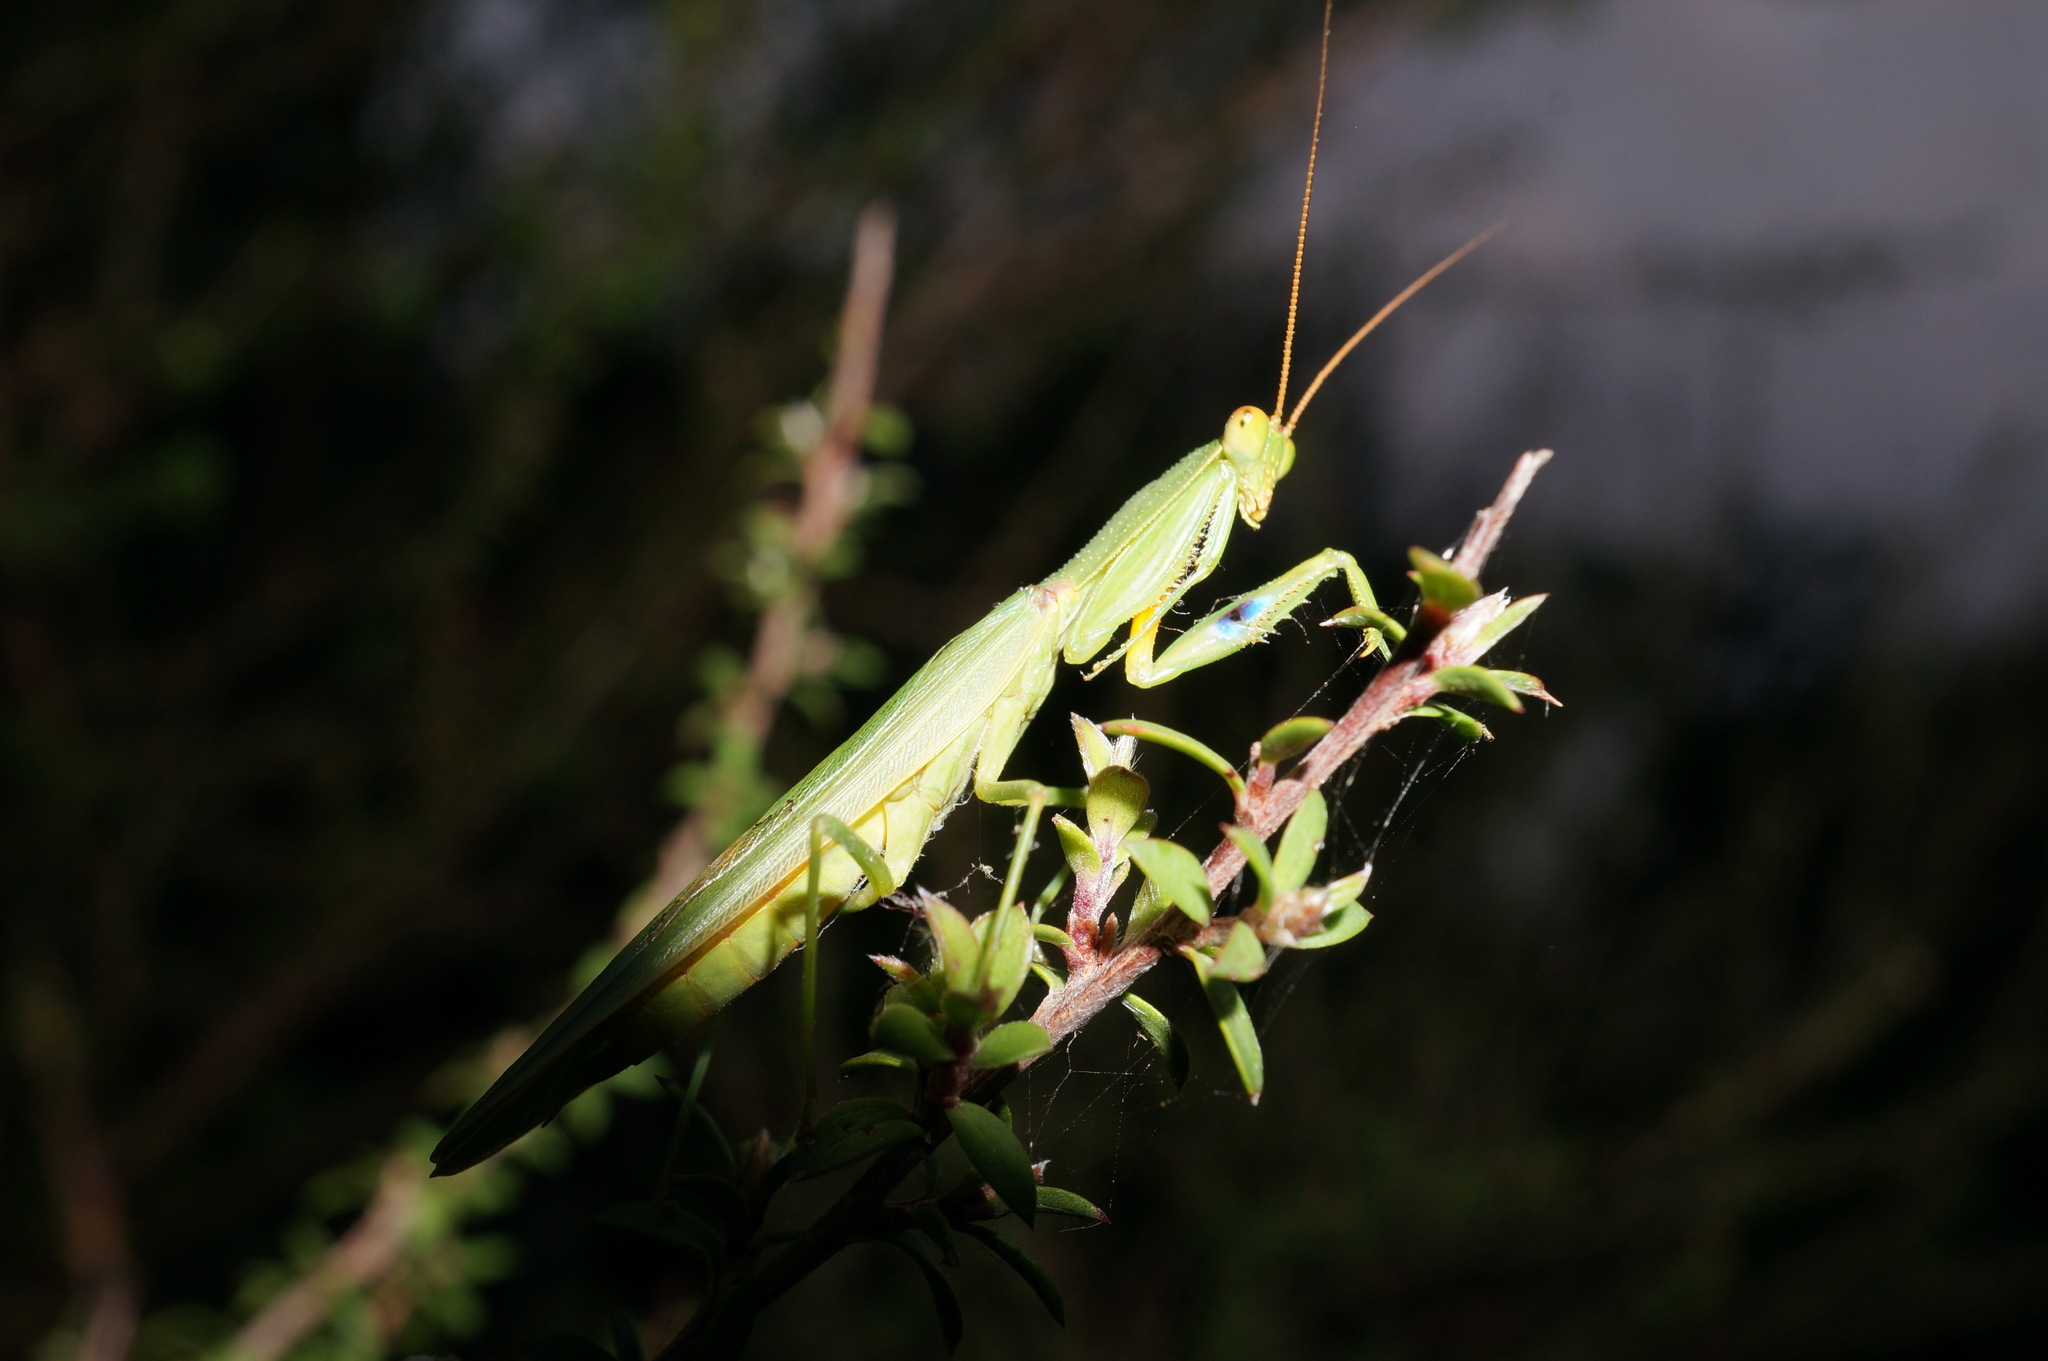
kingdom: Animalia
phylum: Arthropoda
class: Insecta
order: Mantodea
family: Mantidae
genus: Orthodera
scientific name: Orthodera novaezealandiae
